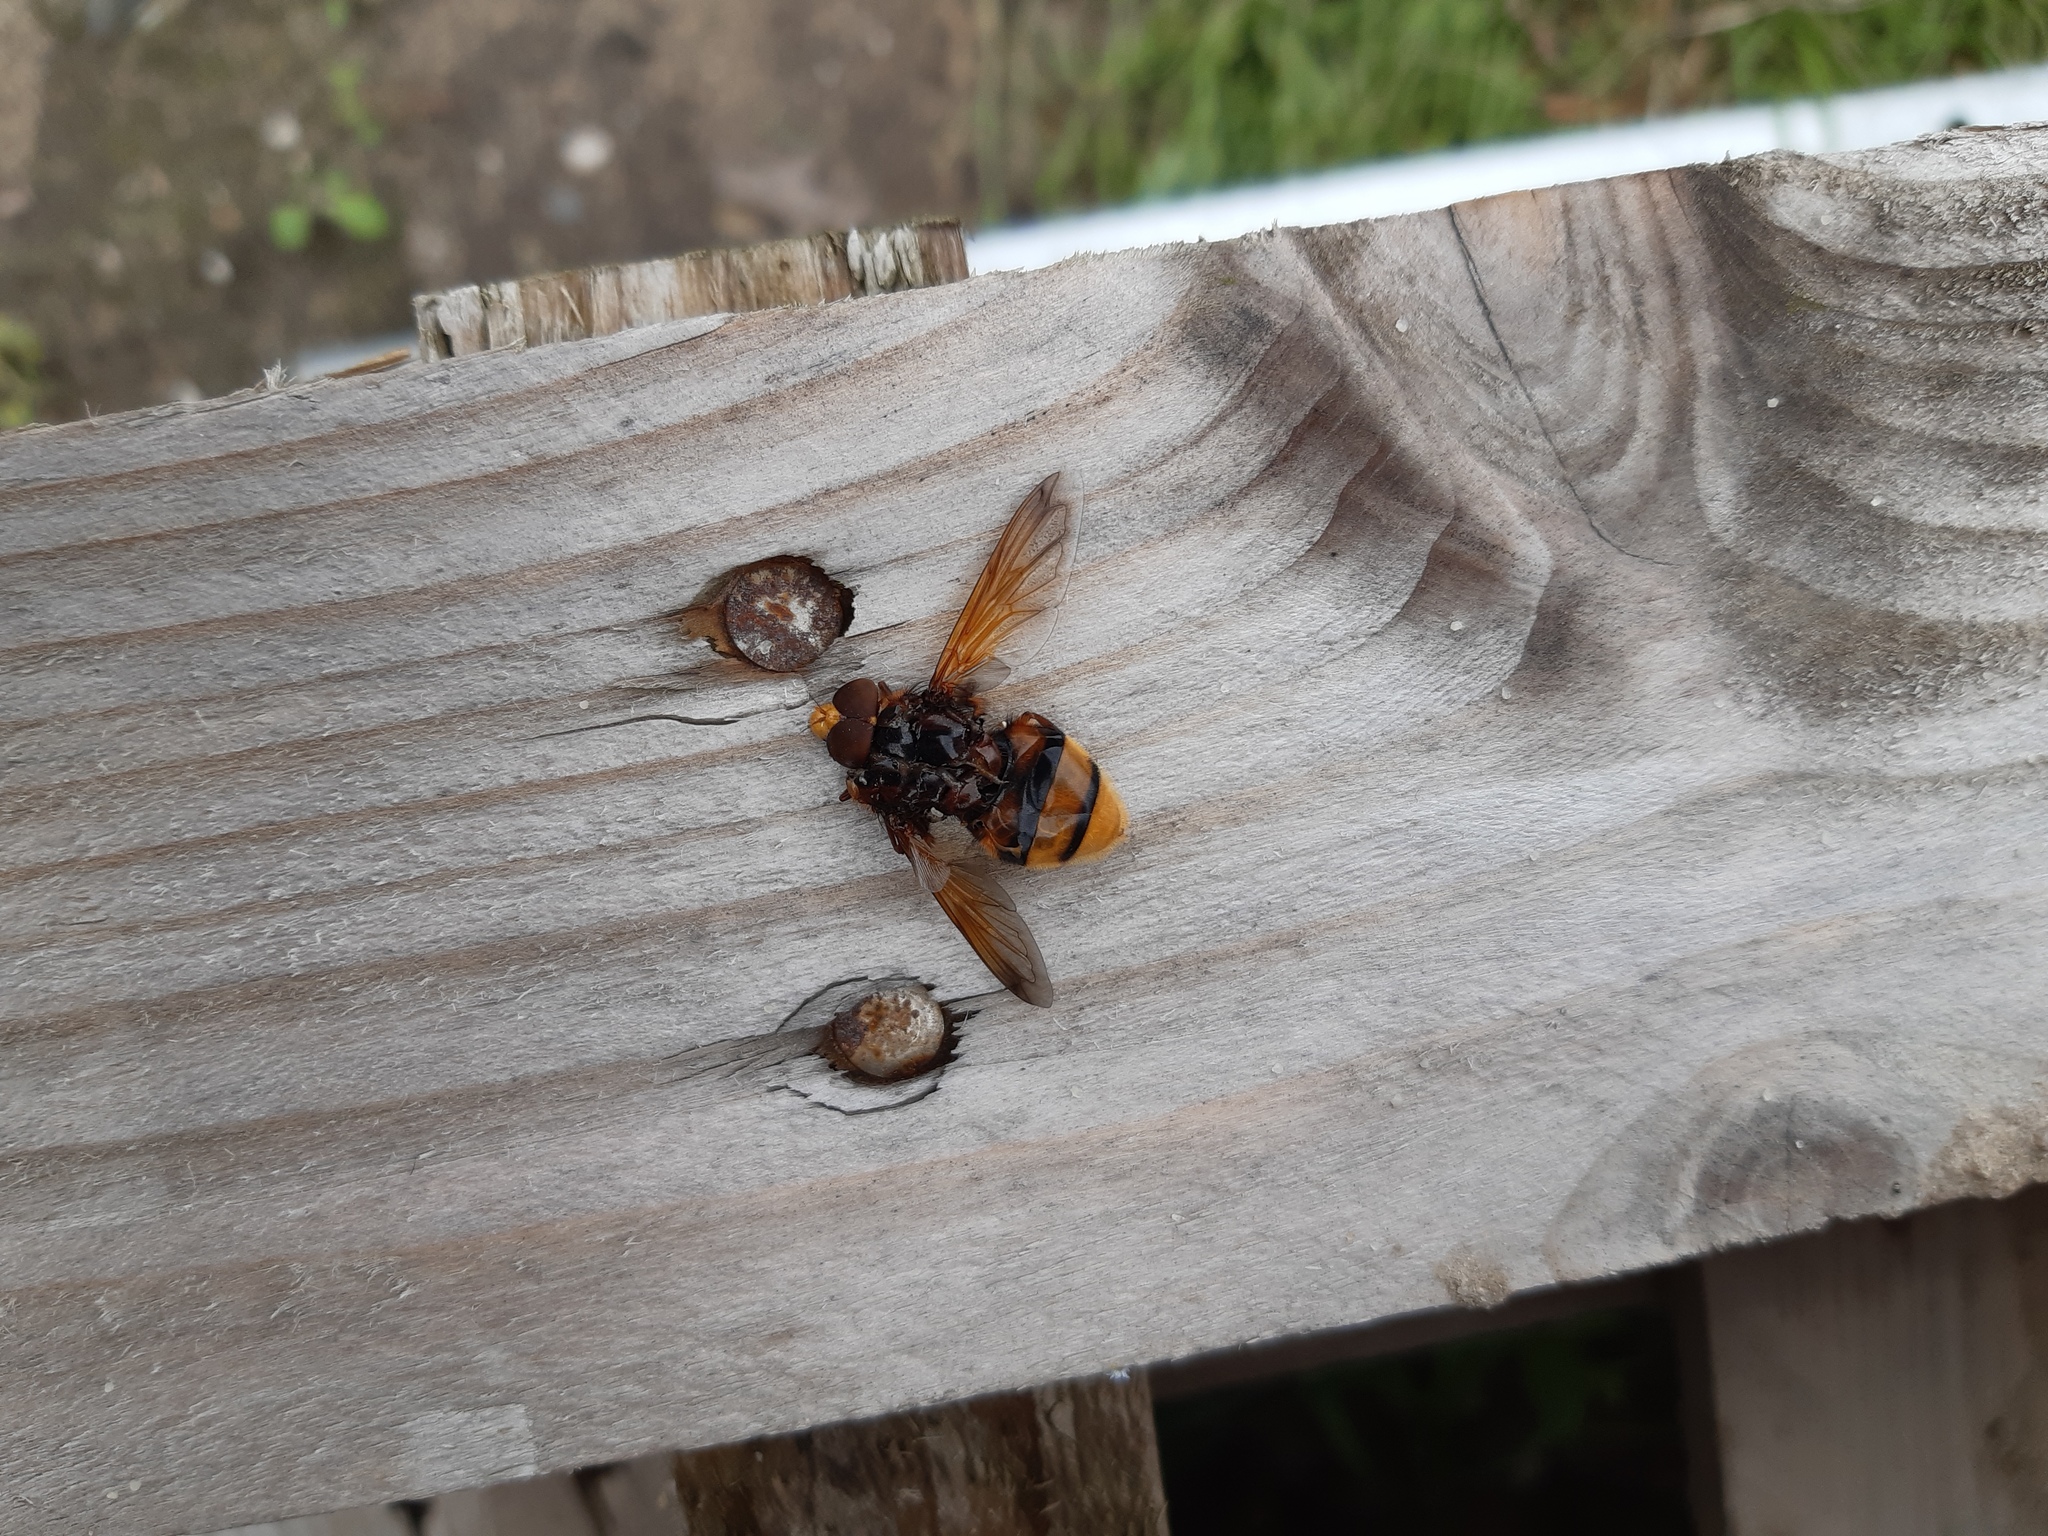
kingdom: Animalia
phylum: Arthropoda
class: Insecta
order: Diptera
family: Syrphidae
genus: Volucella
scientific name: Volucella zonaria
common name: Hornet hoverfly
